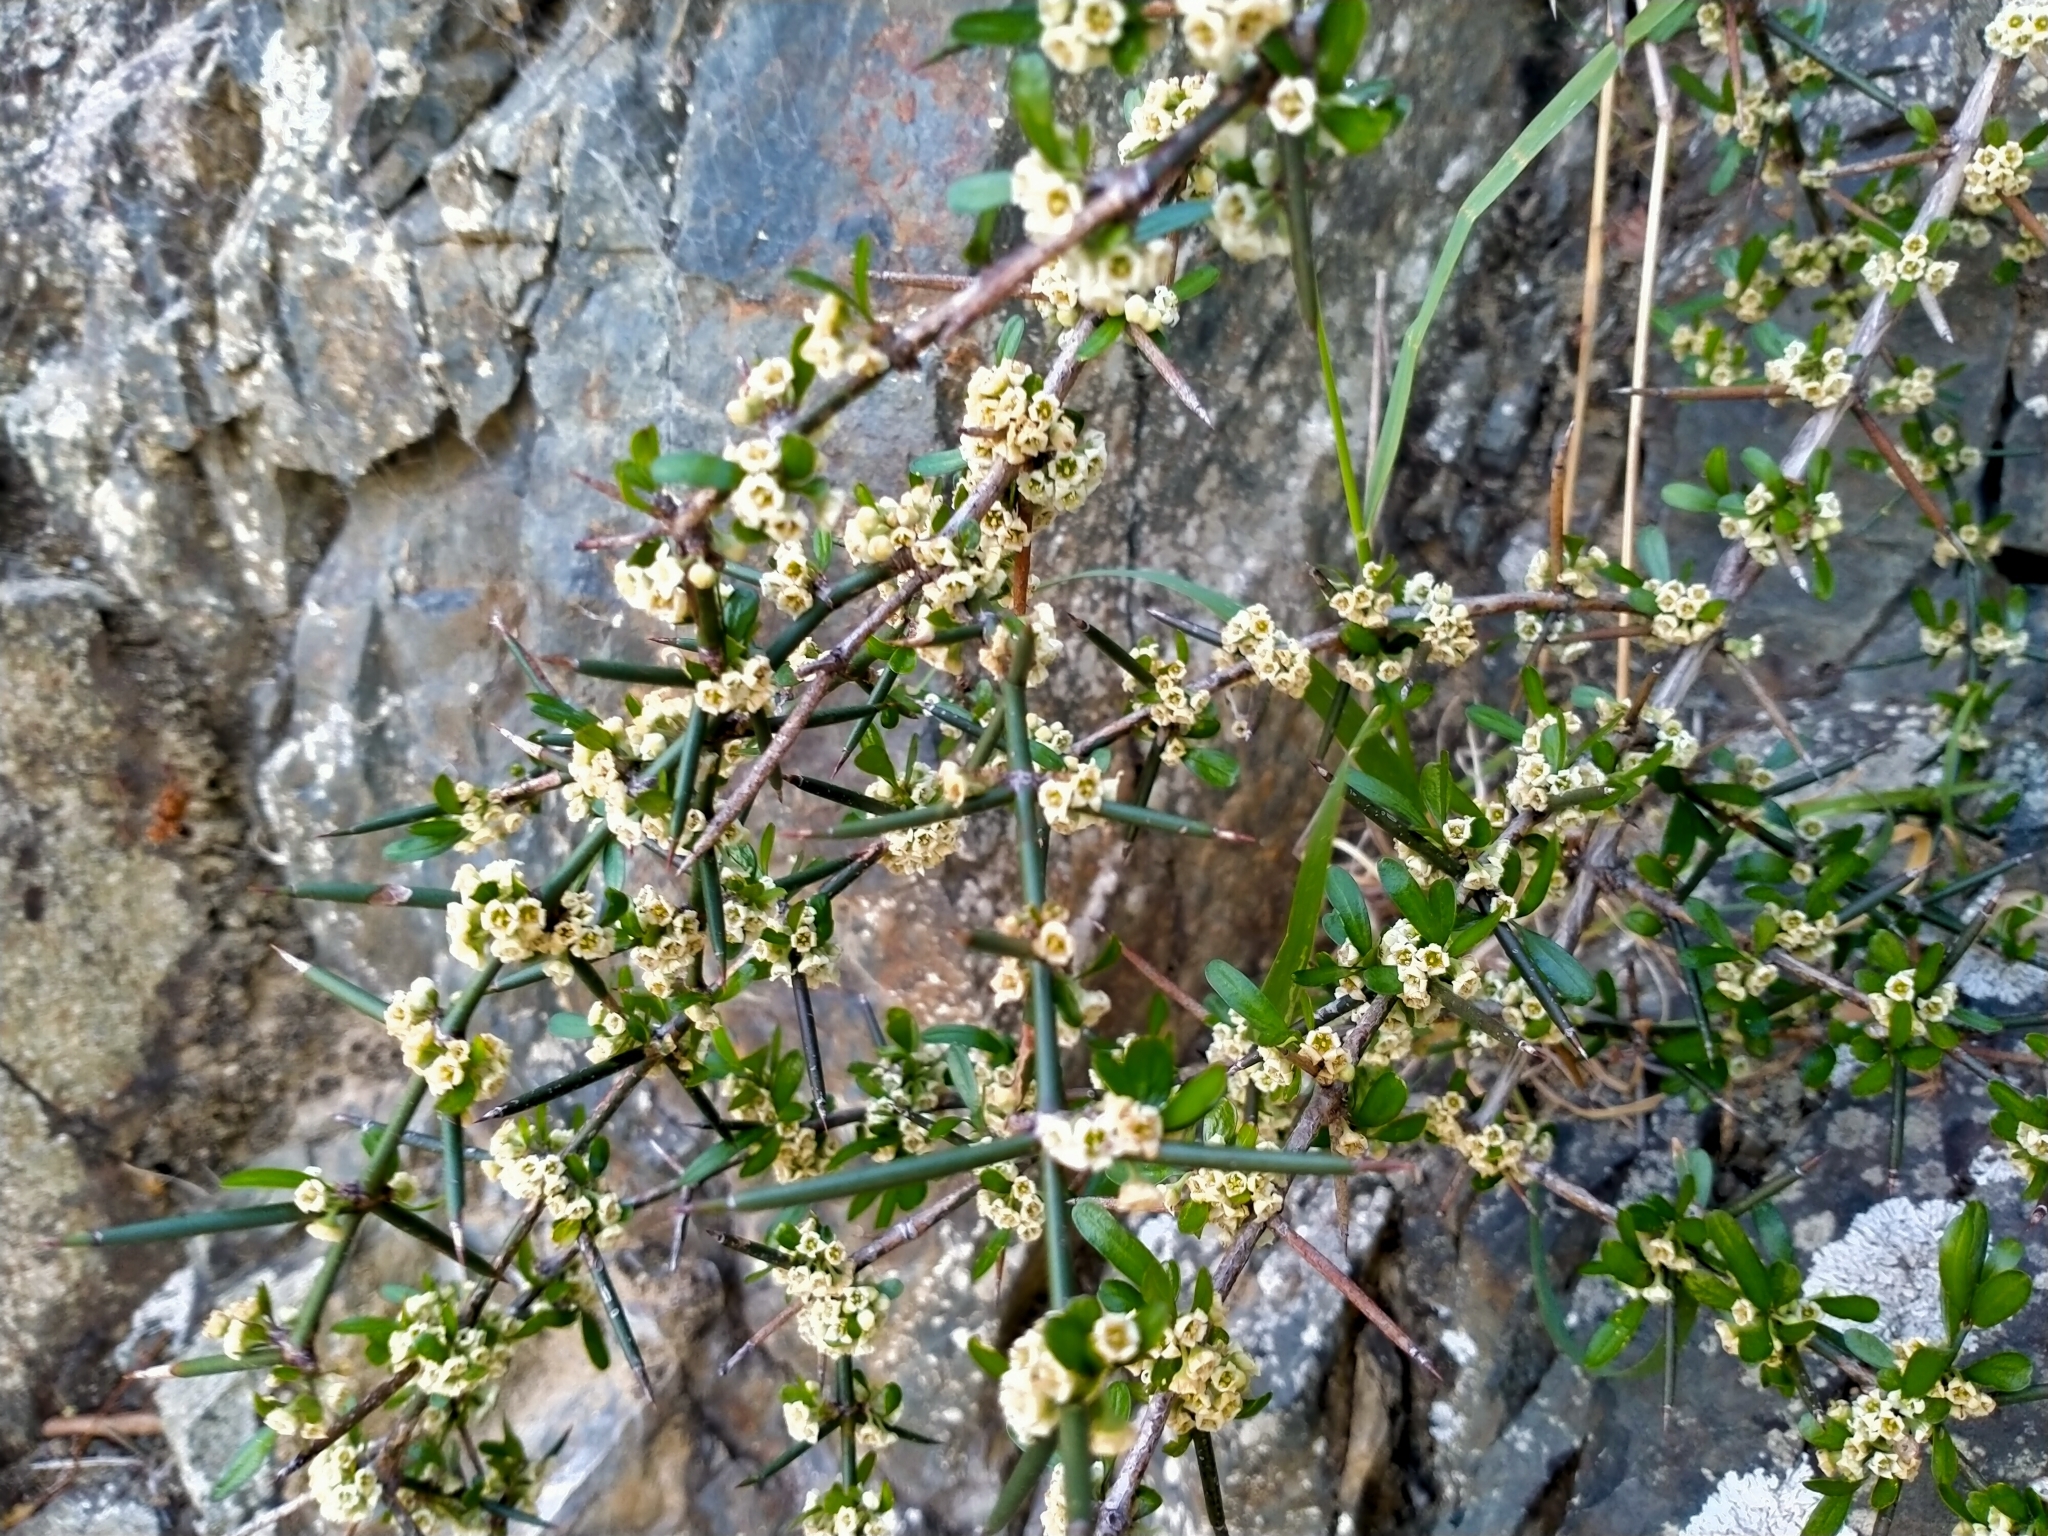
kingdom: Plantae
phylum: Tracheophyta
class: Magnoliopsida
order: Rosales
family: Rhamnaceae
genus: Discaria
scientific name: Discaria toumatou
